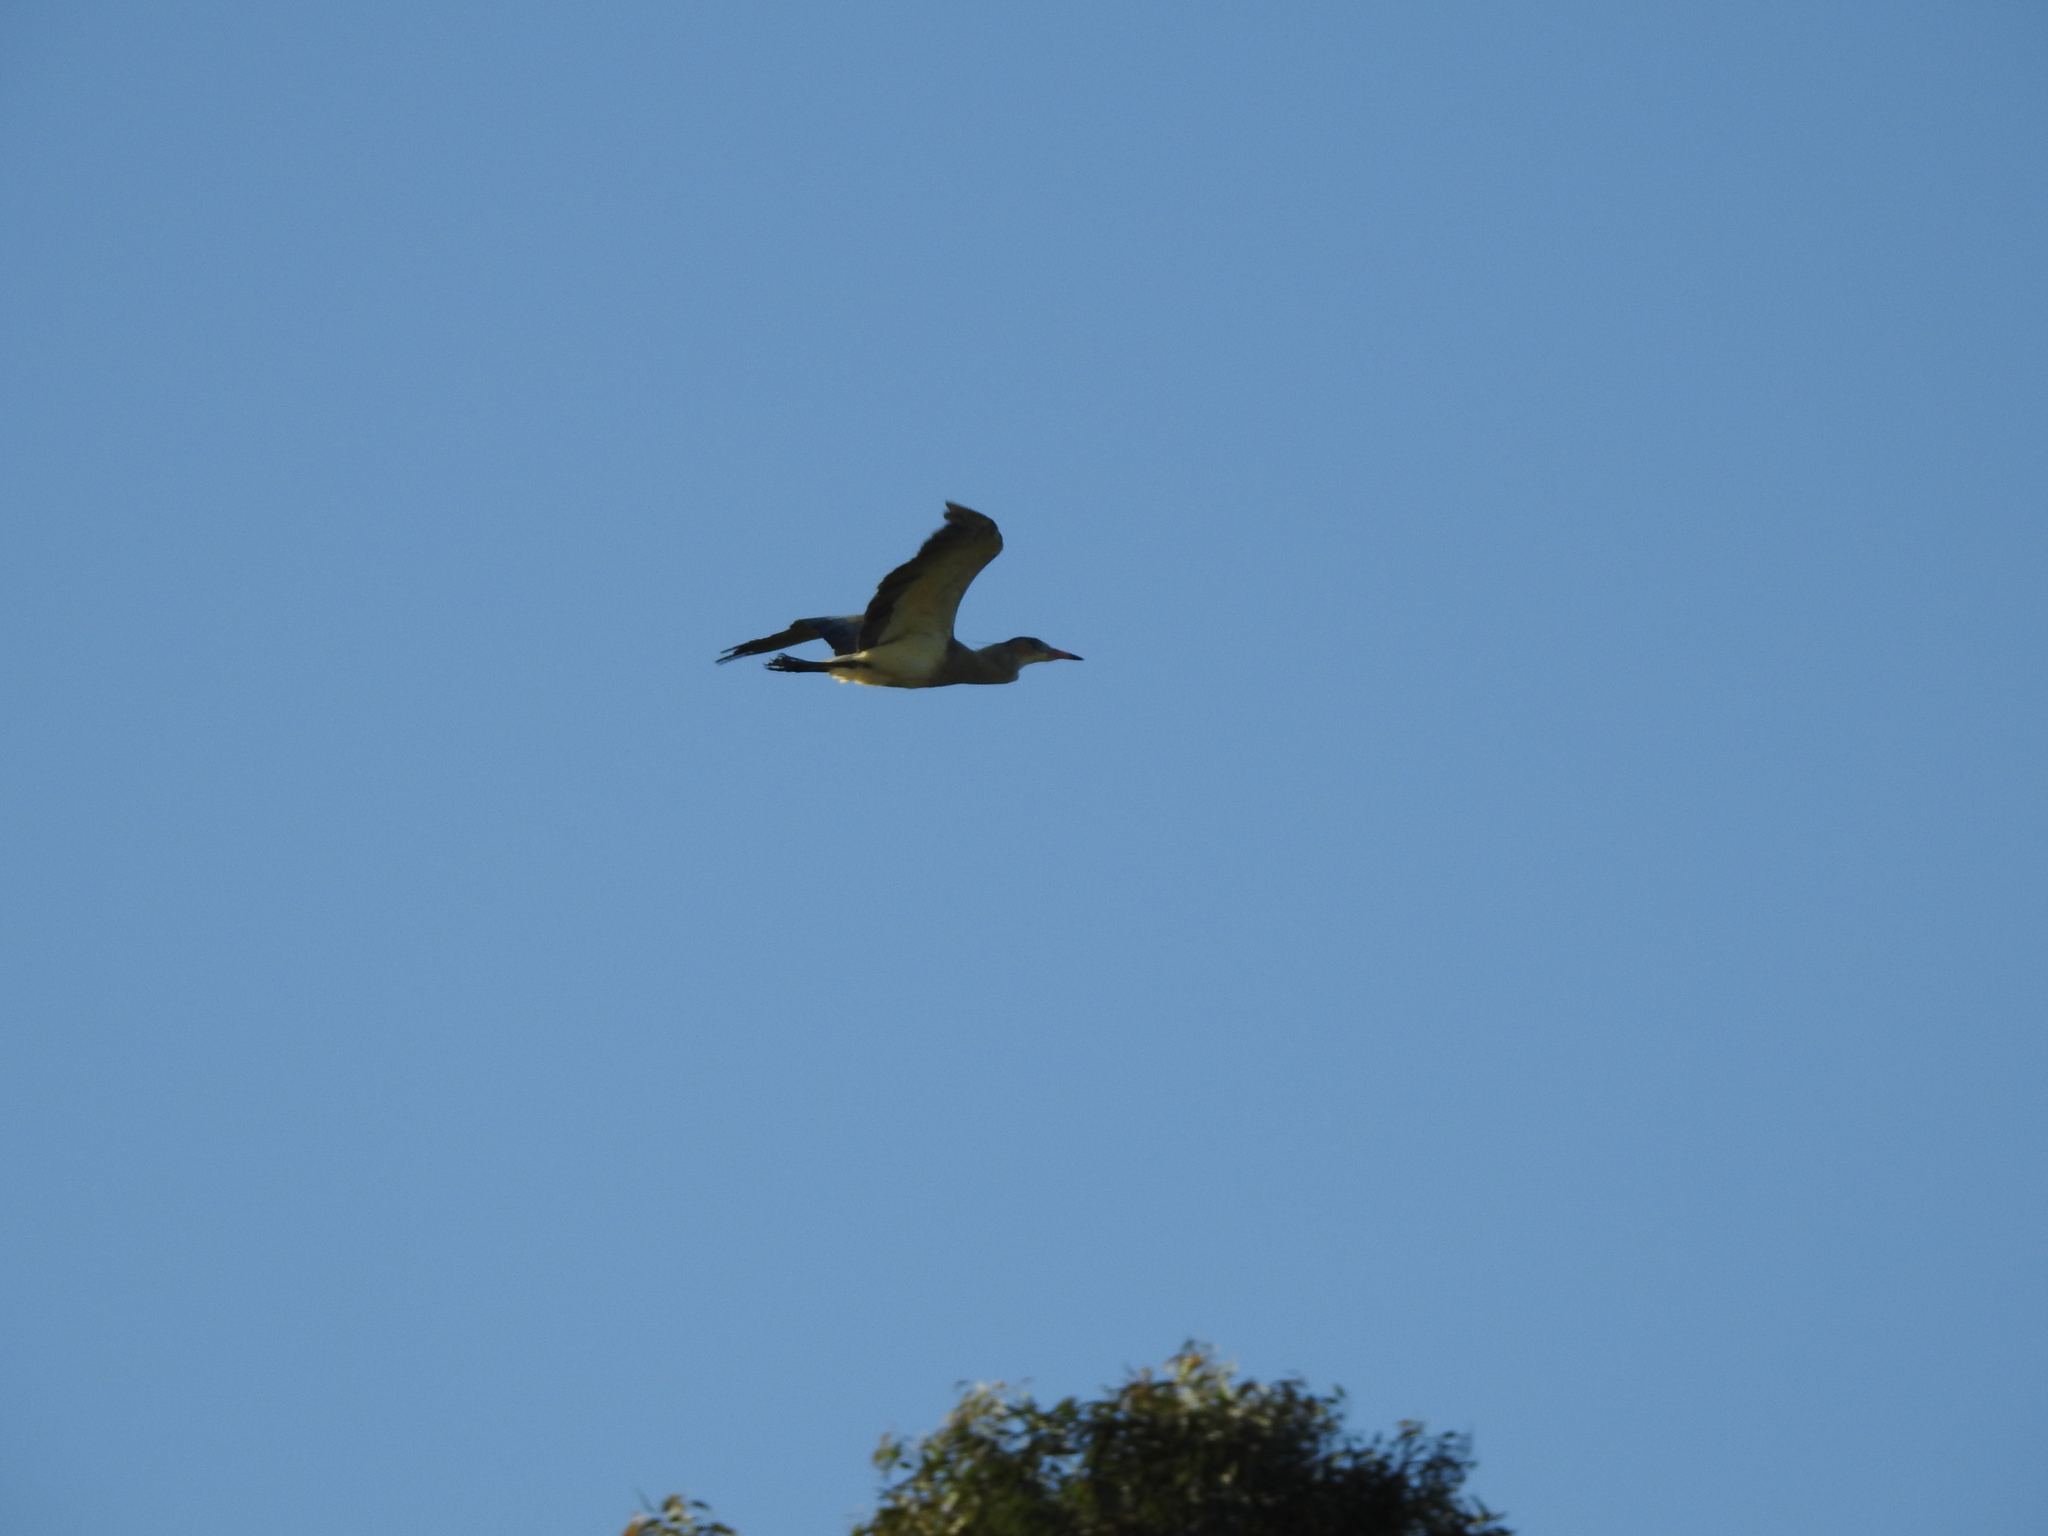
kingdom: Animalia
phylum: Chordata
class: Aves
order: Pelecaniformes
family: Ardeidae
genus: Syrigma
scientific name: Syrigma sibilatrix
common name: Whistling heron
